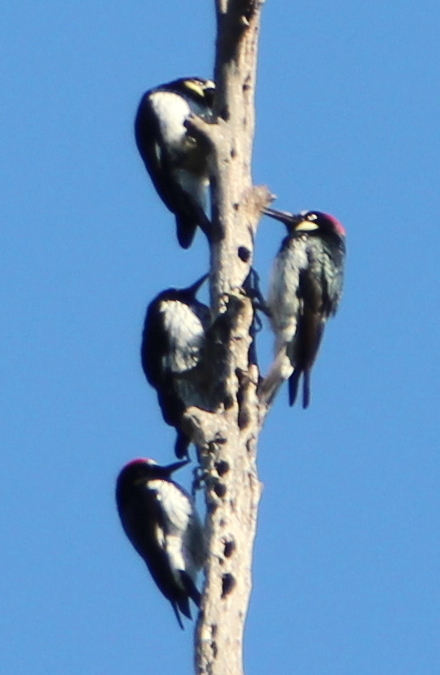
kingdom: Animalia
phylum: Chordata
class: Aves
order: Piciformes
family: Picidae
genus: Melanerpes
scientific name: Melanerpes formicivorus
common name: Acorn woodpecker
